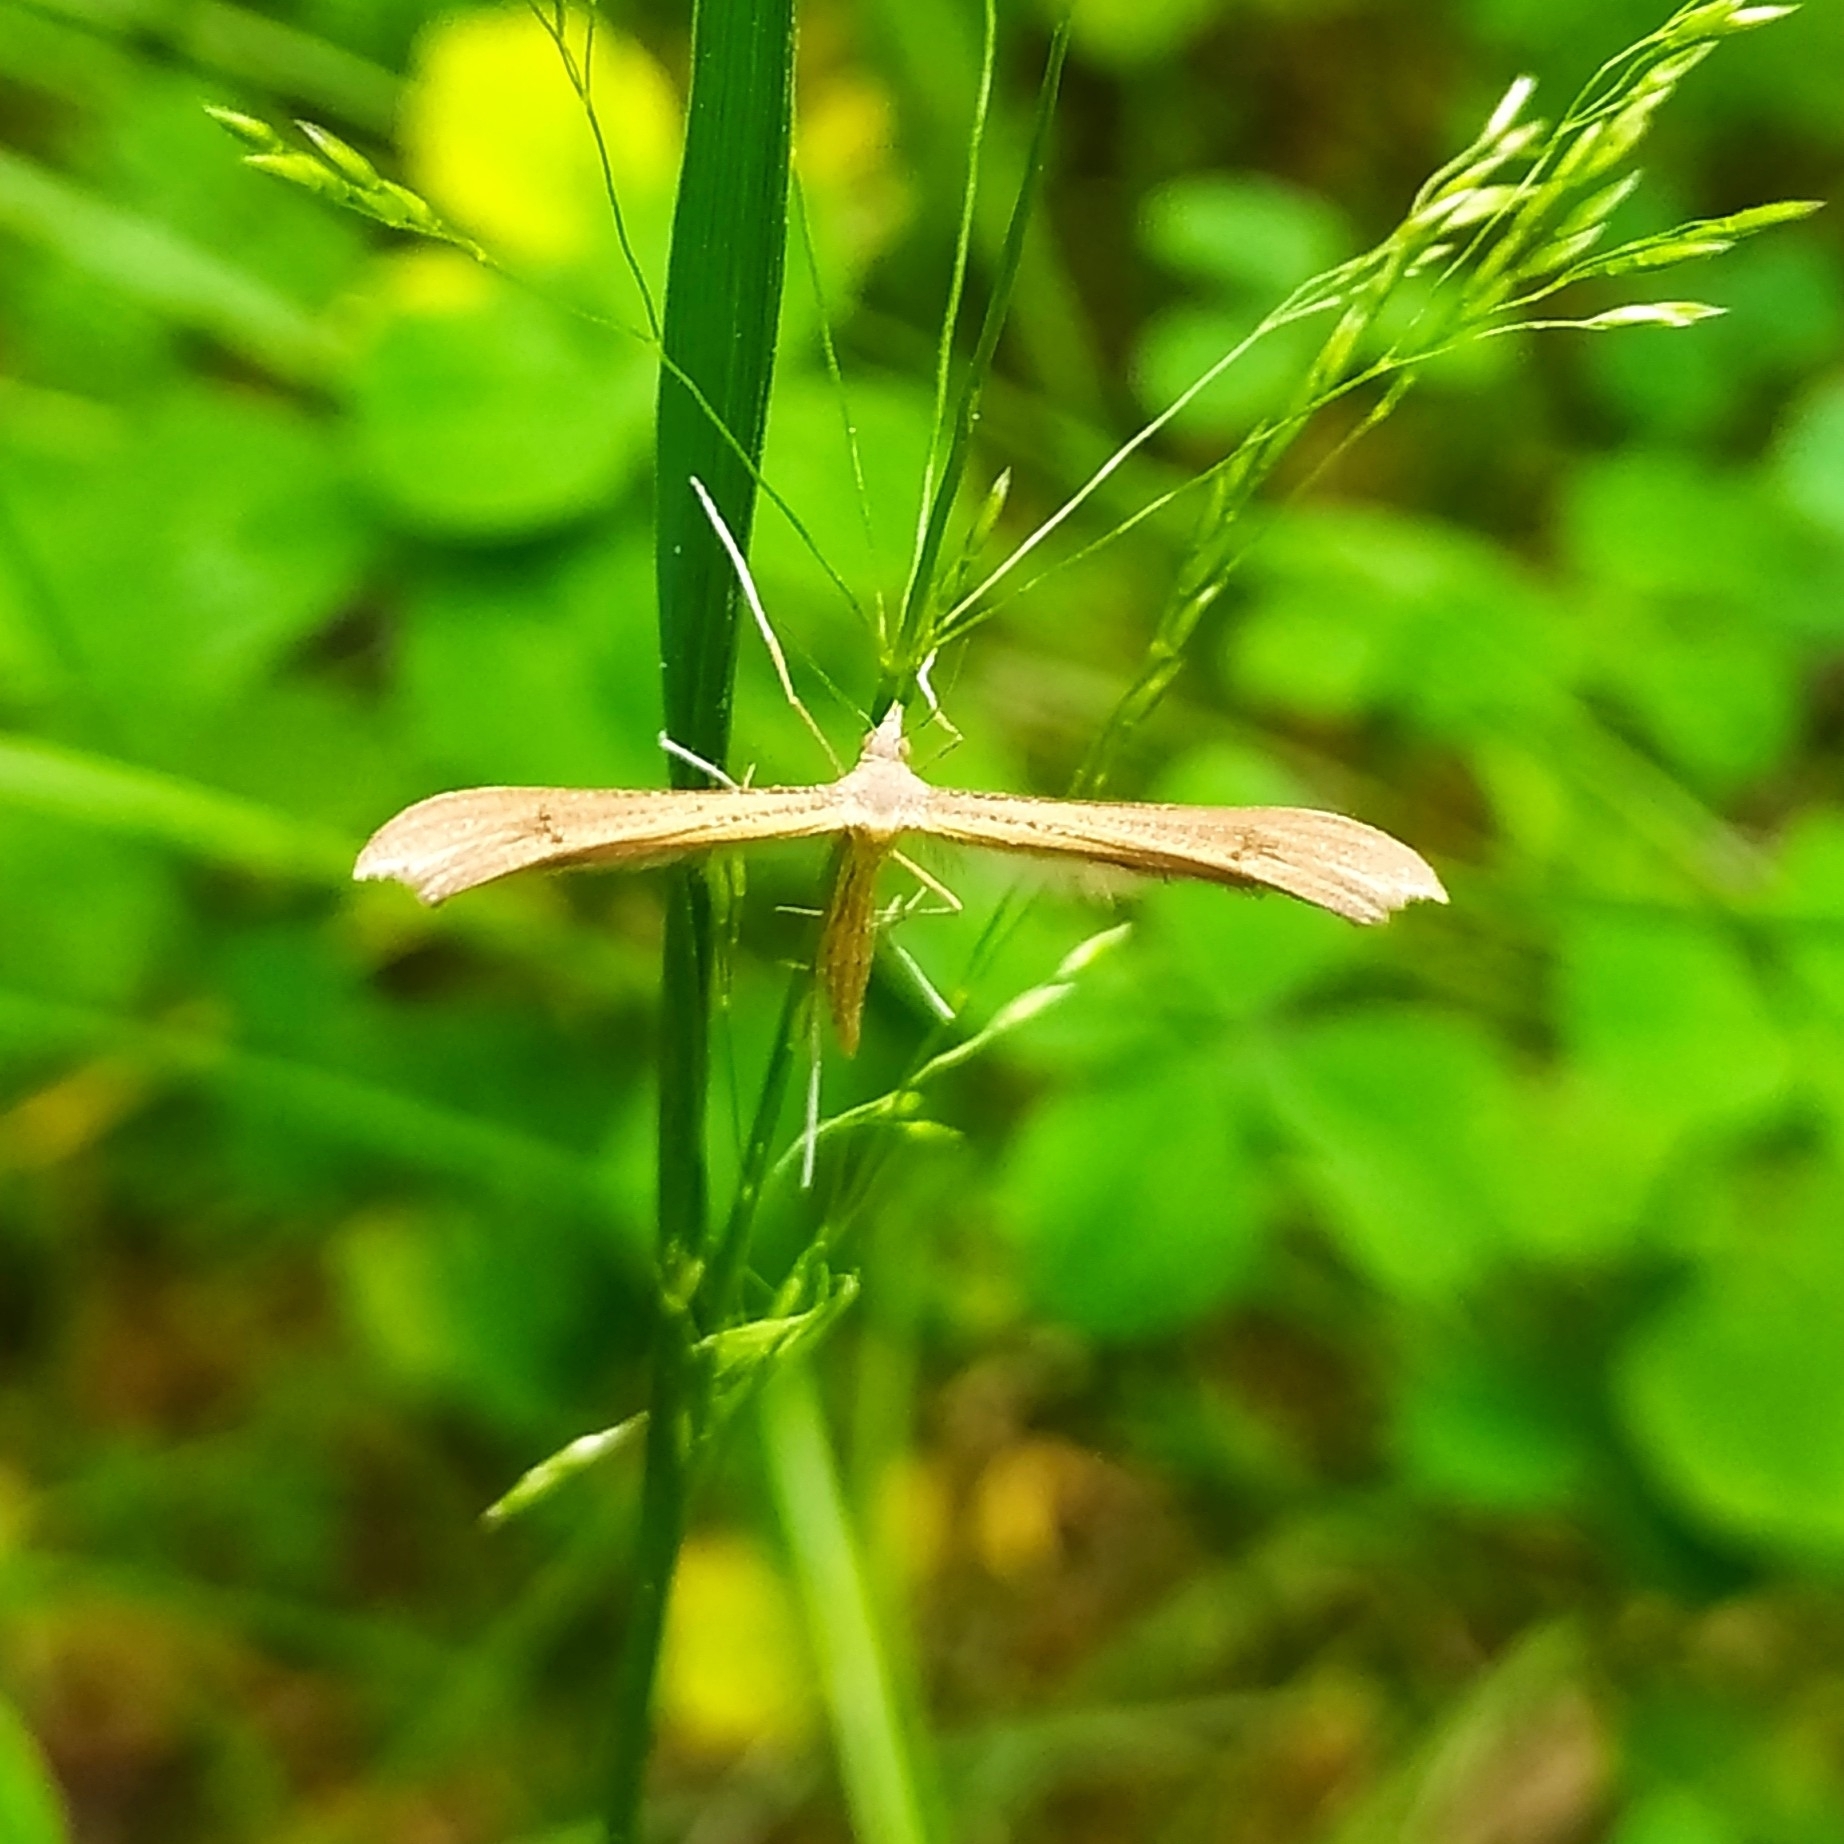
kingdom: Animalia
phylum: Arthropoda
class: Insecta
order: Lepidoptera
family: Pterophoridae
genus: Stenoptilia
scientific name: Stenoptilia pterodactyla
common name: Brown plume
